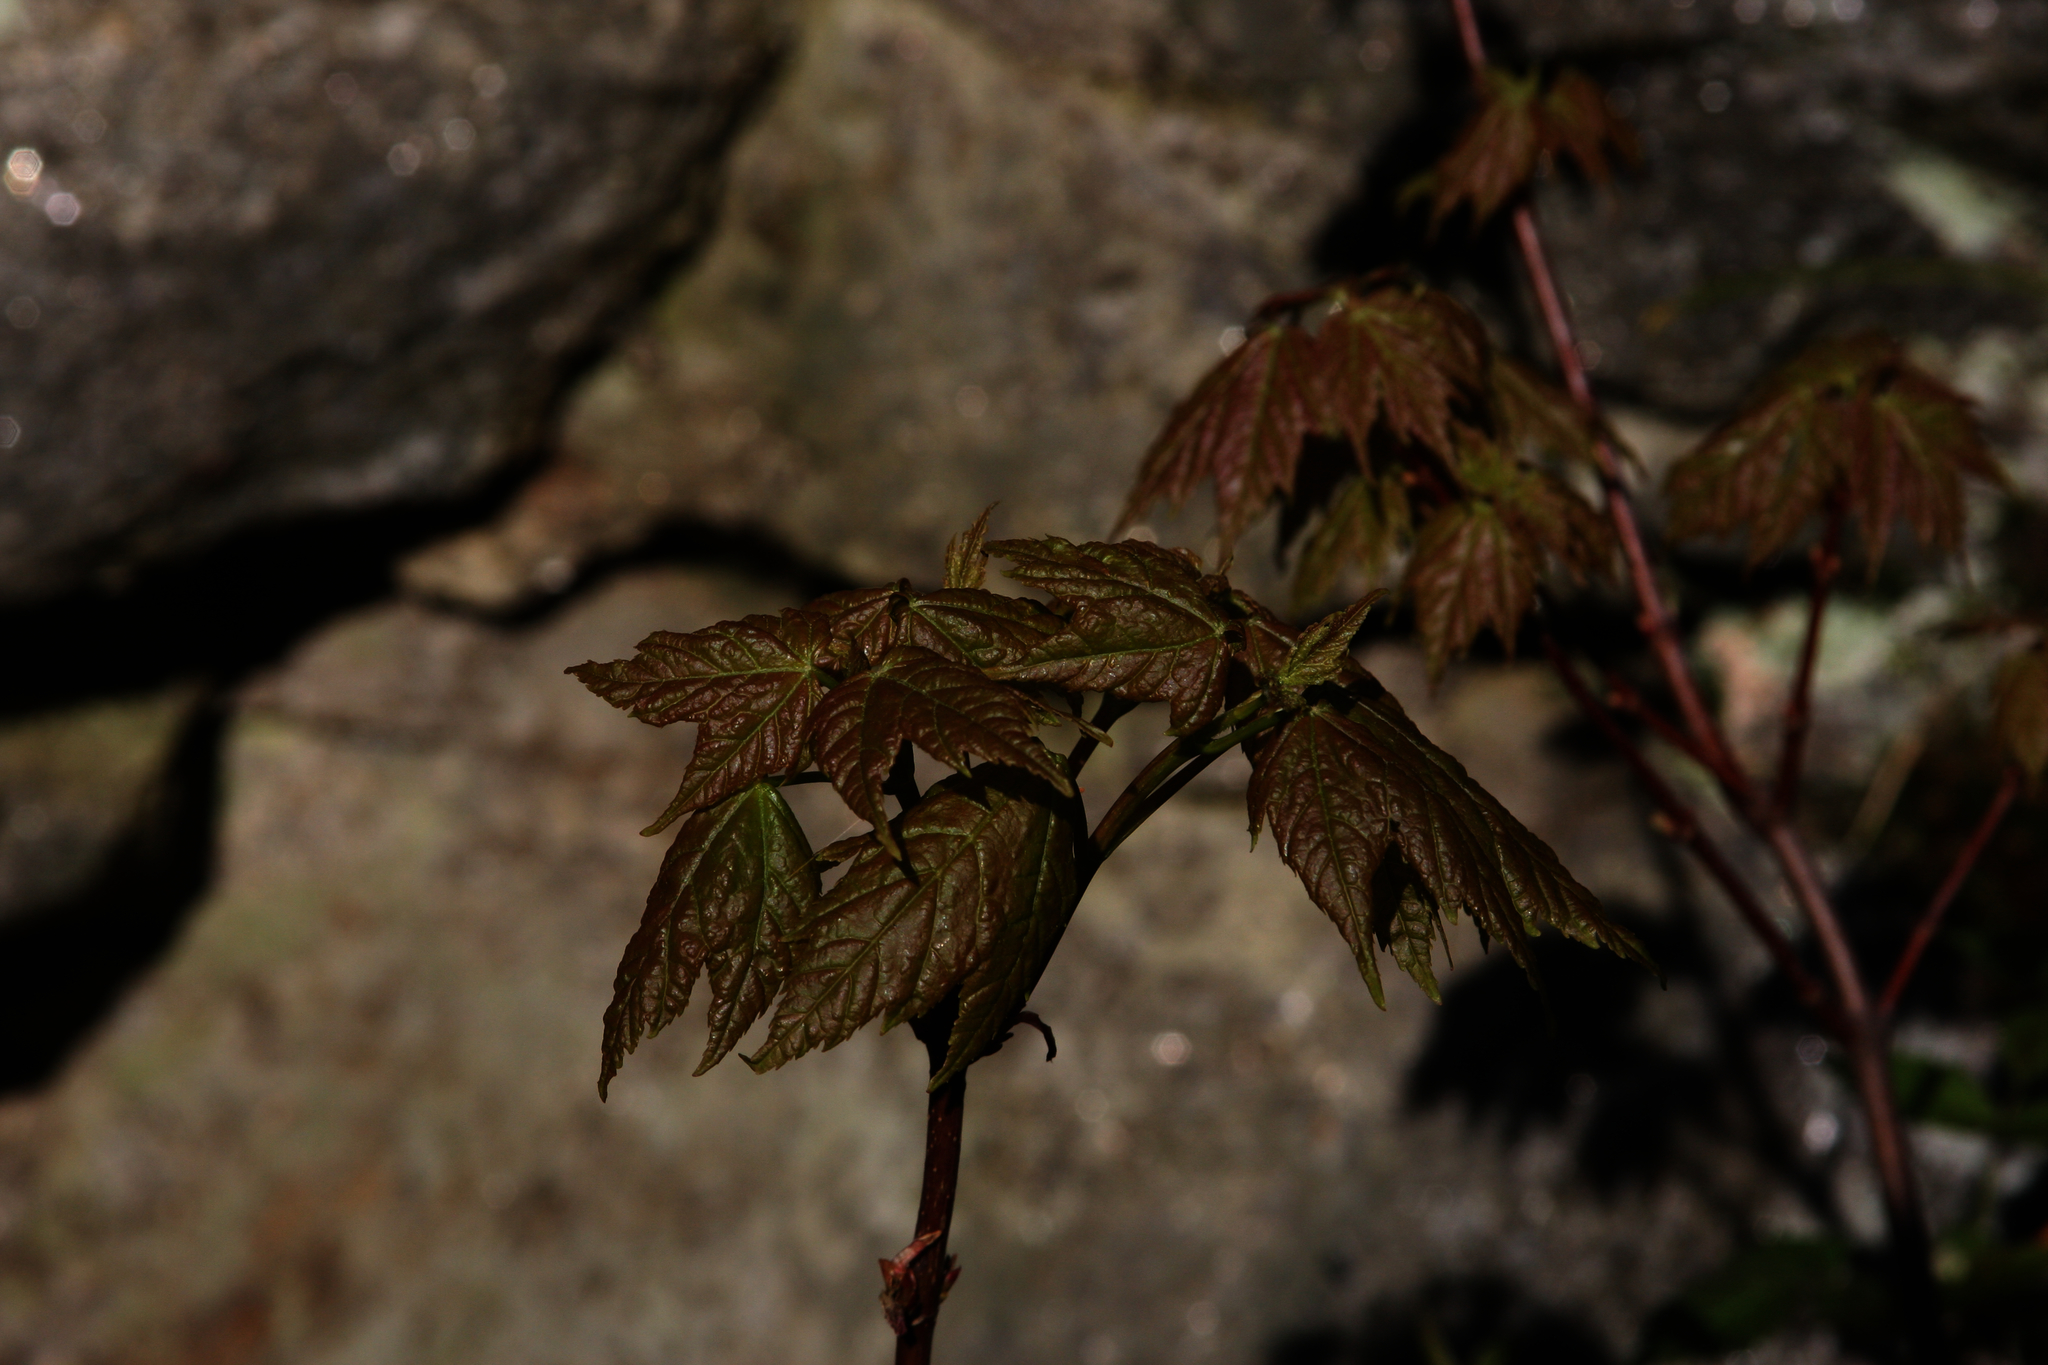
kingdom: Plantae
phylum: Tracheophyta
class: Magnoliopsida
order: Sapindales
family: Sapindaceae
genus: Acer
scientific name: Acer rubrum
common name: Red maple
